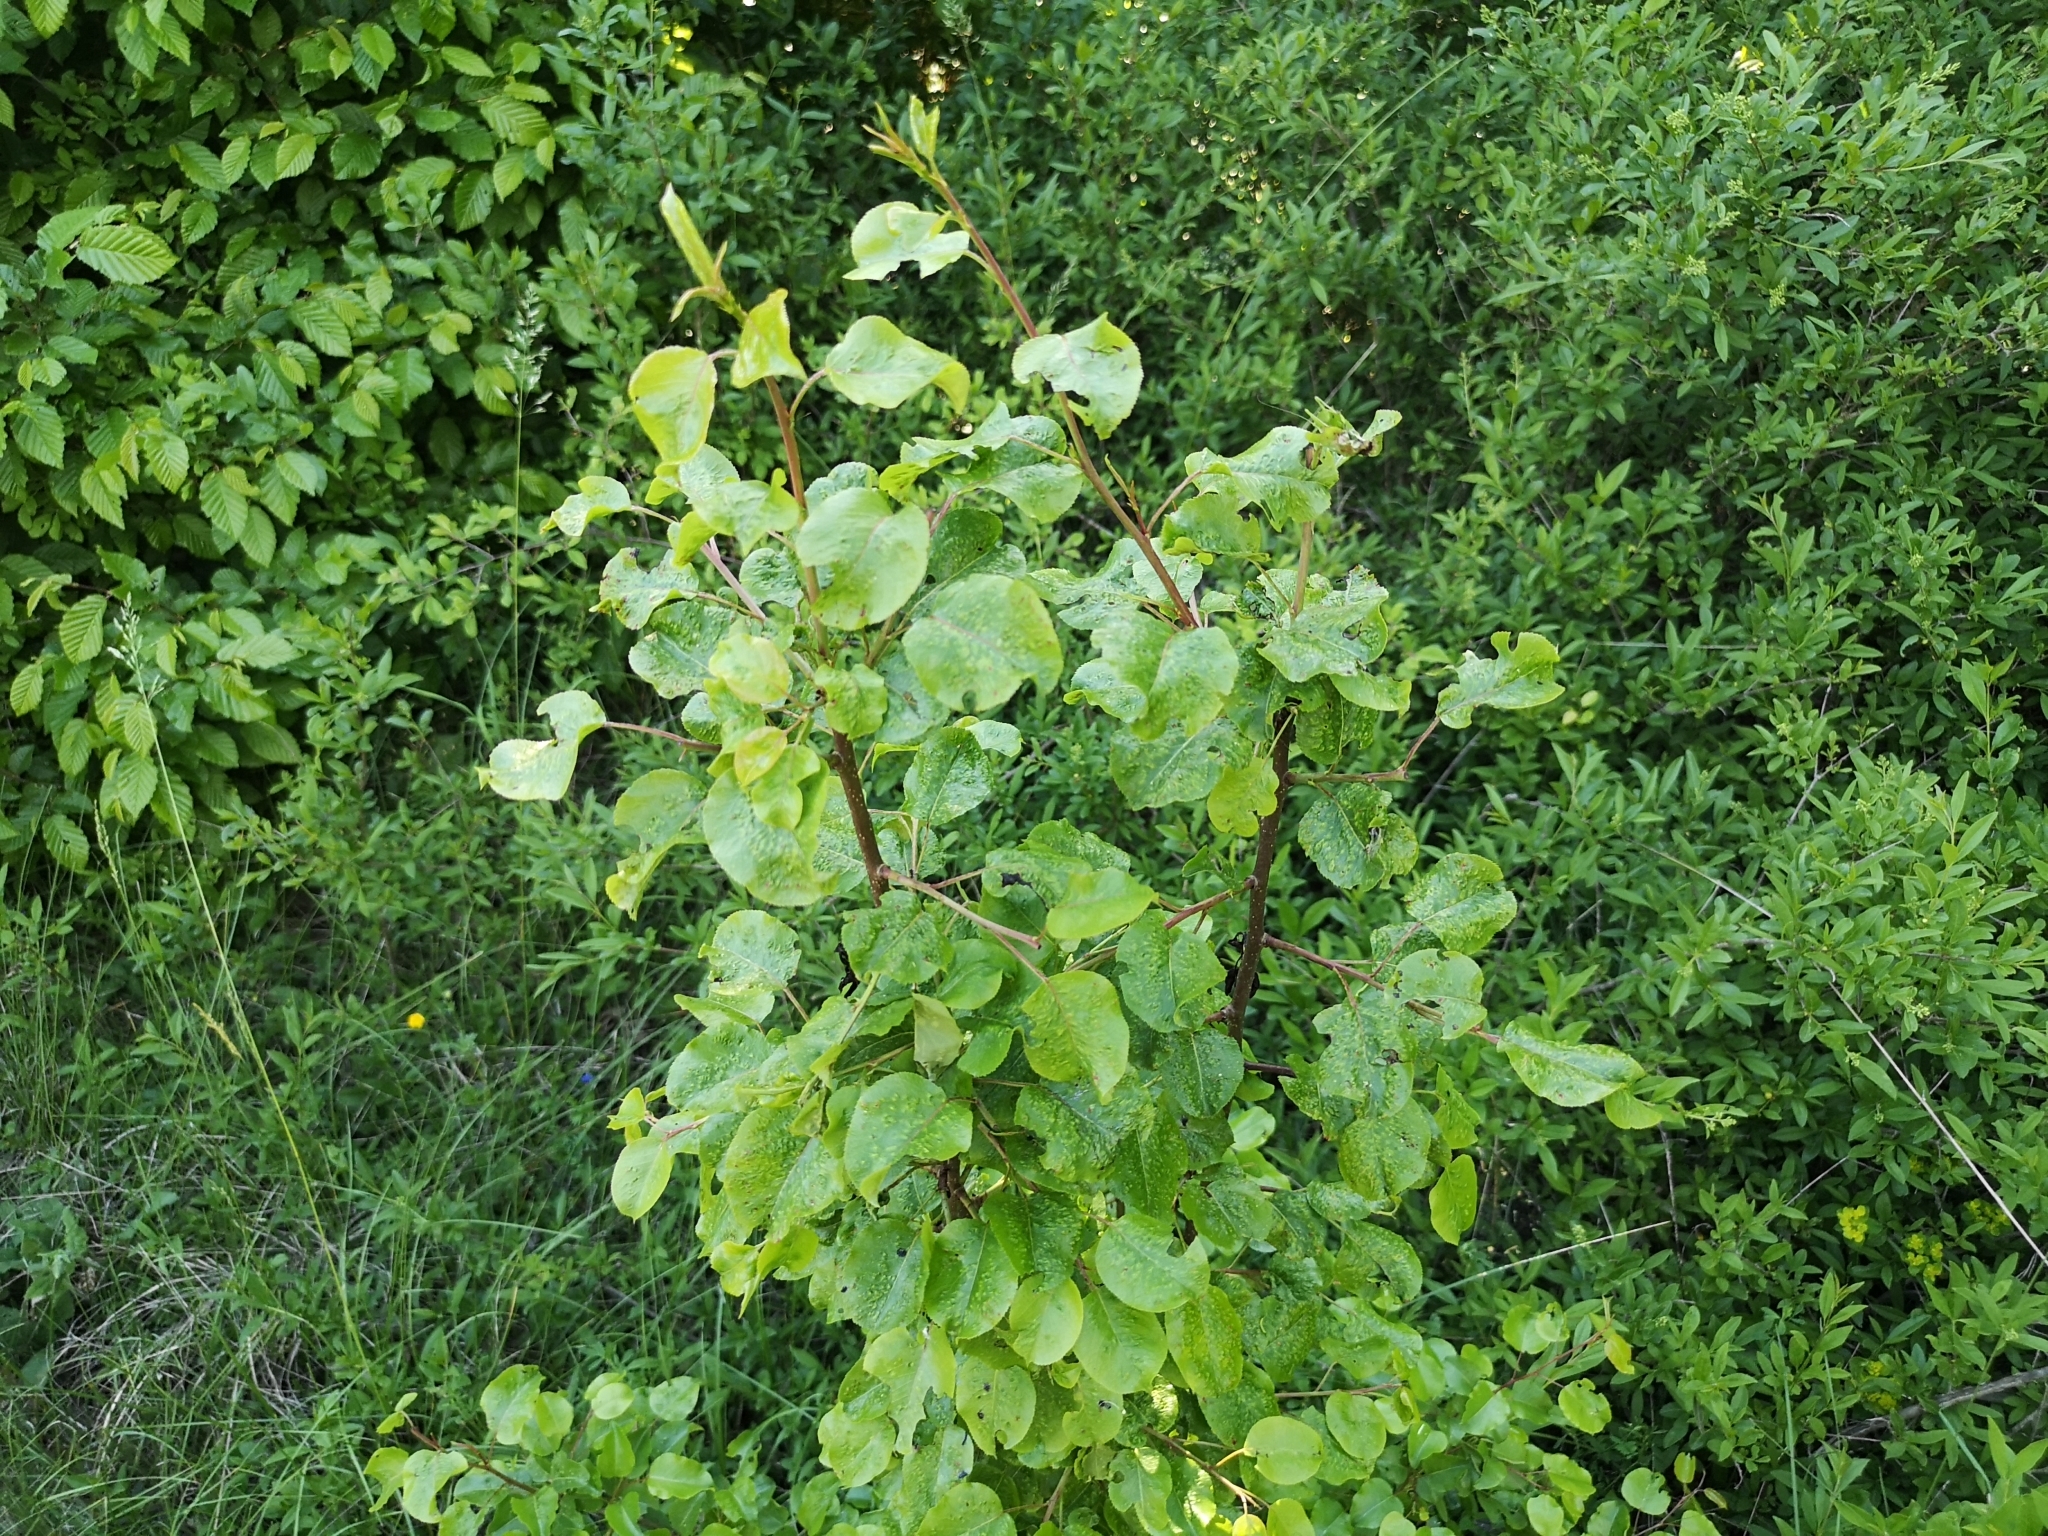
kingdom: Plantae
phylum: Tracheophyta
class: Magnoliopsida
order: Rosales
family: Rosaceae
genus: Pyrus
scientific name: Pyrus
